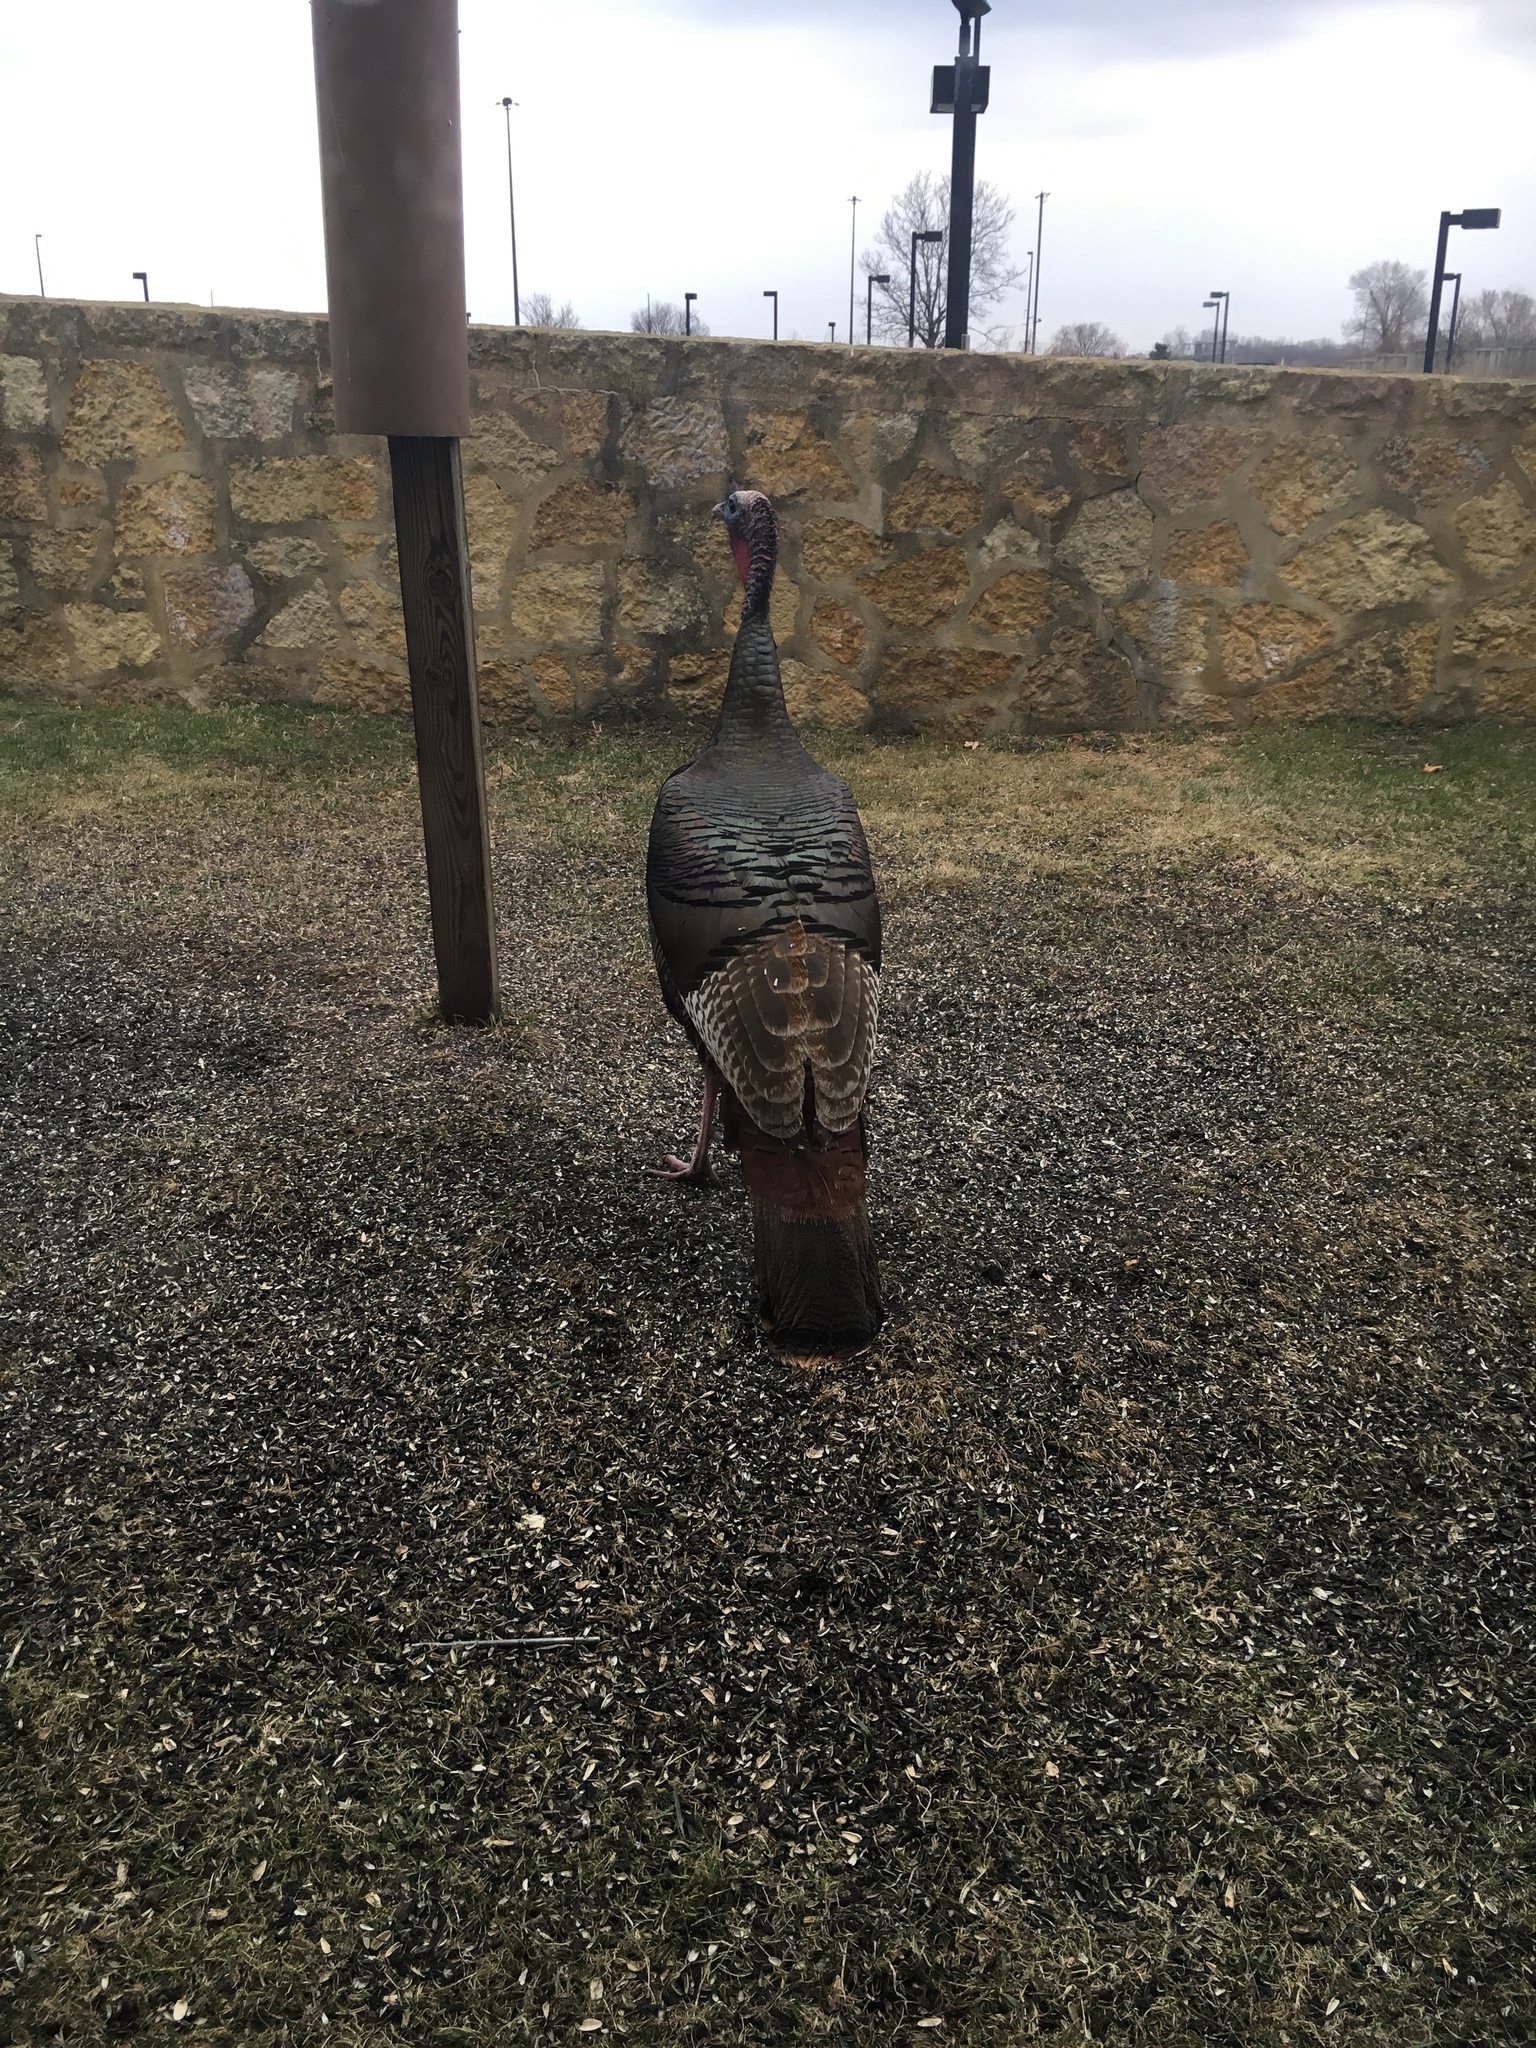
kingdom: Animalia
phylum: Chordata
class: Aves
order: Galliformes
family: Phasianidae
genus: Meleagris
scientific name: Meleagris gallopavo
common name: Wild turkey
